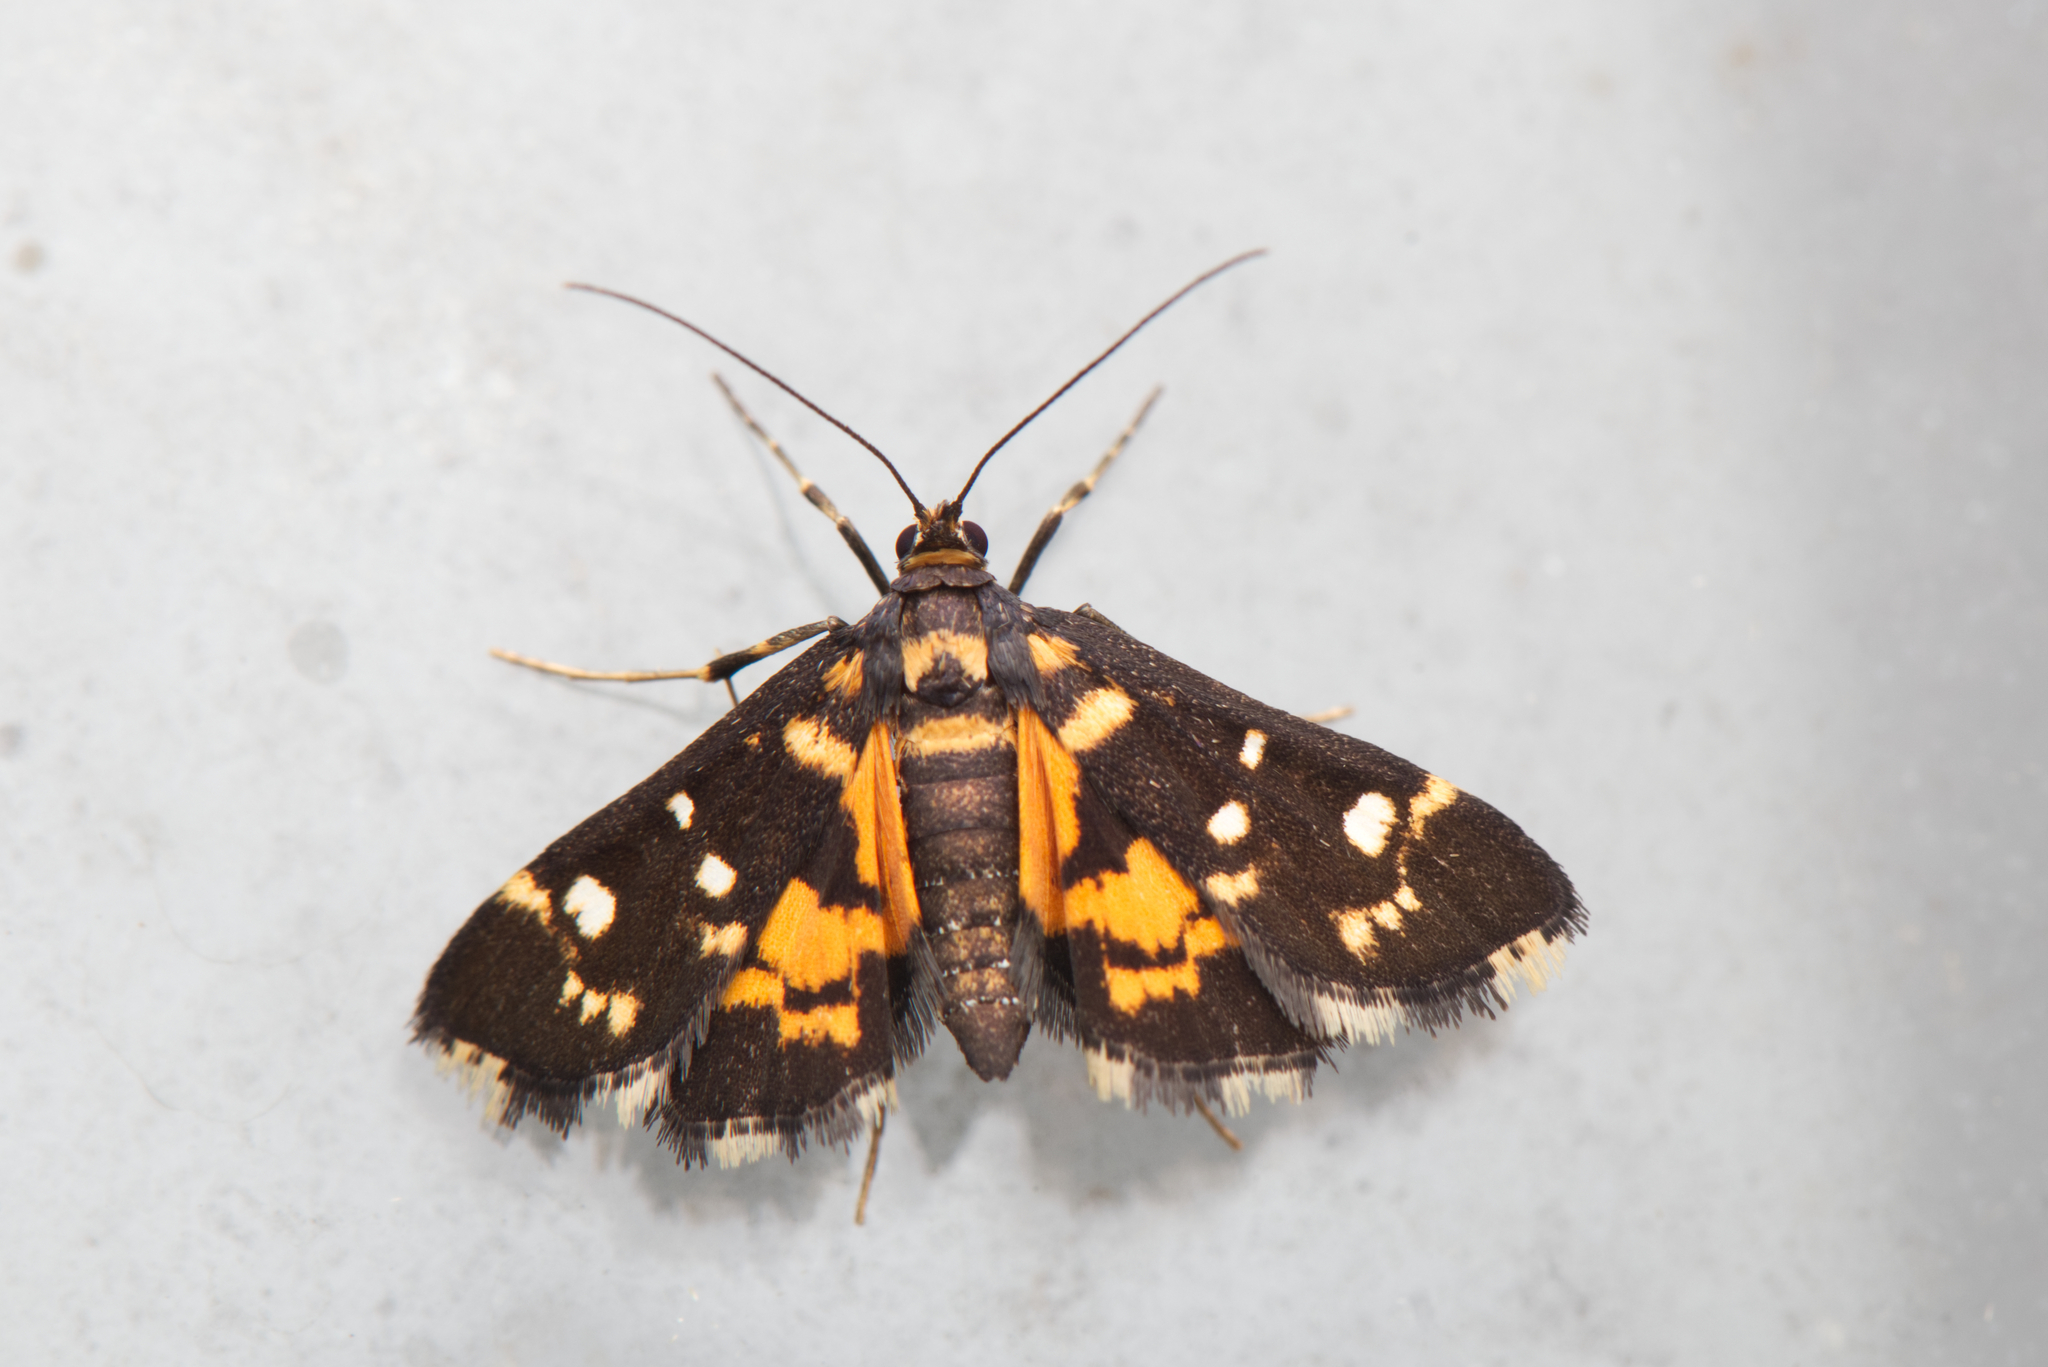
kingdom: Animalia
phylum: Arthropoda
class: Insecta
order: Lepidoptera
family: Crambidae
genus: Diathrausta
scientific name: Diathrausta ochreipennis
